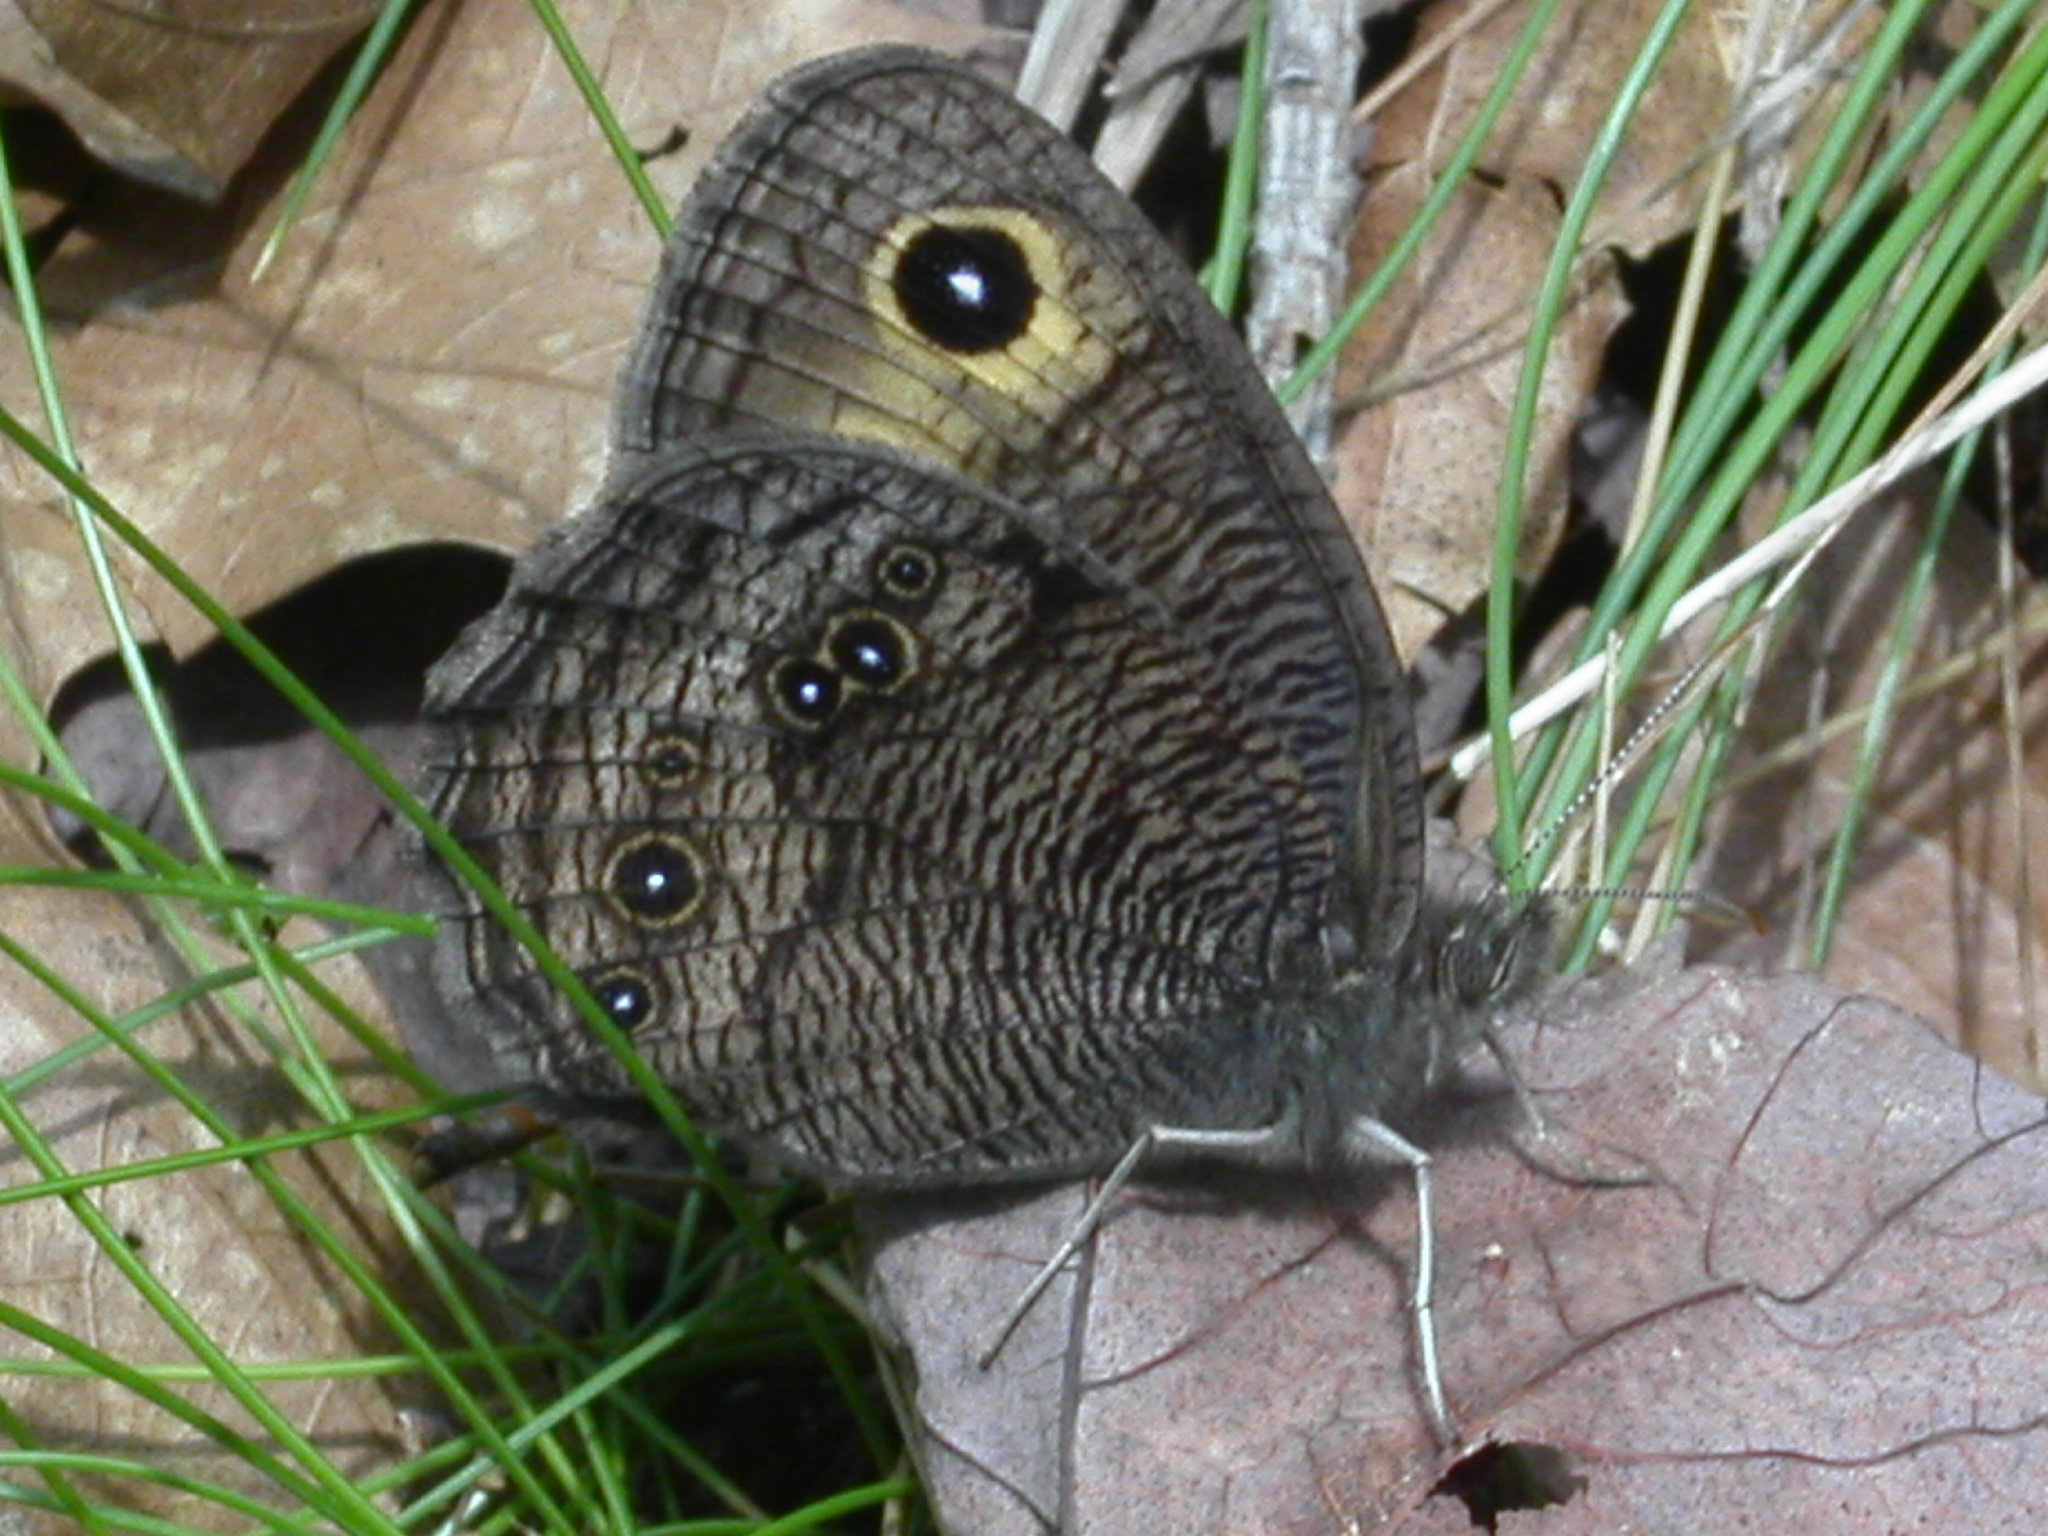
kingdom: Animalia
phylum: Arthropoda
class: Insecta
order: Lepidoptera
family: Nymphalidae
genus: Cercyonis
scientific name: Cercyonis pegala
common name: Common wood-nymph
